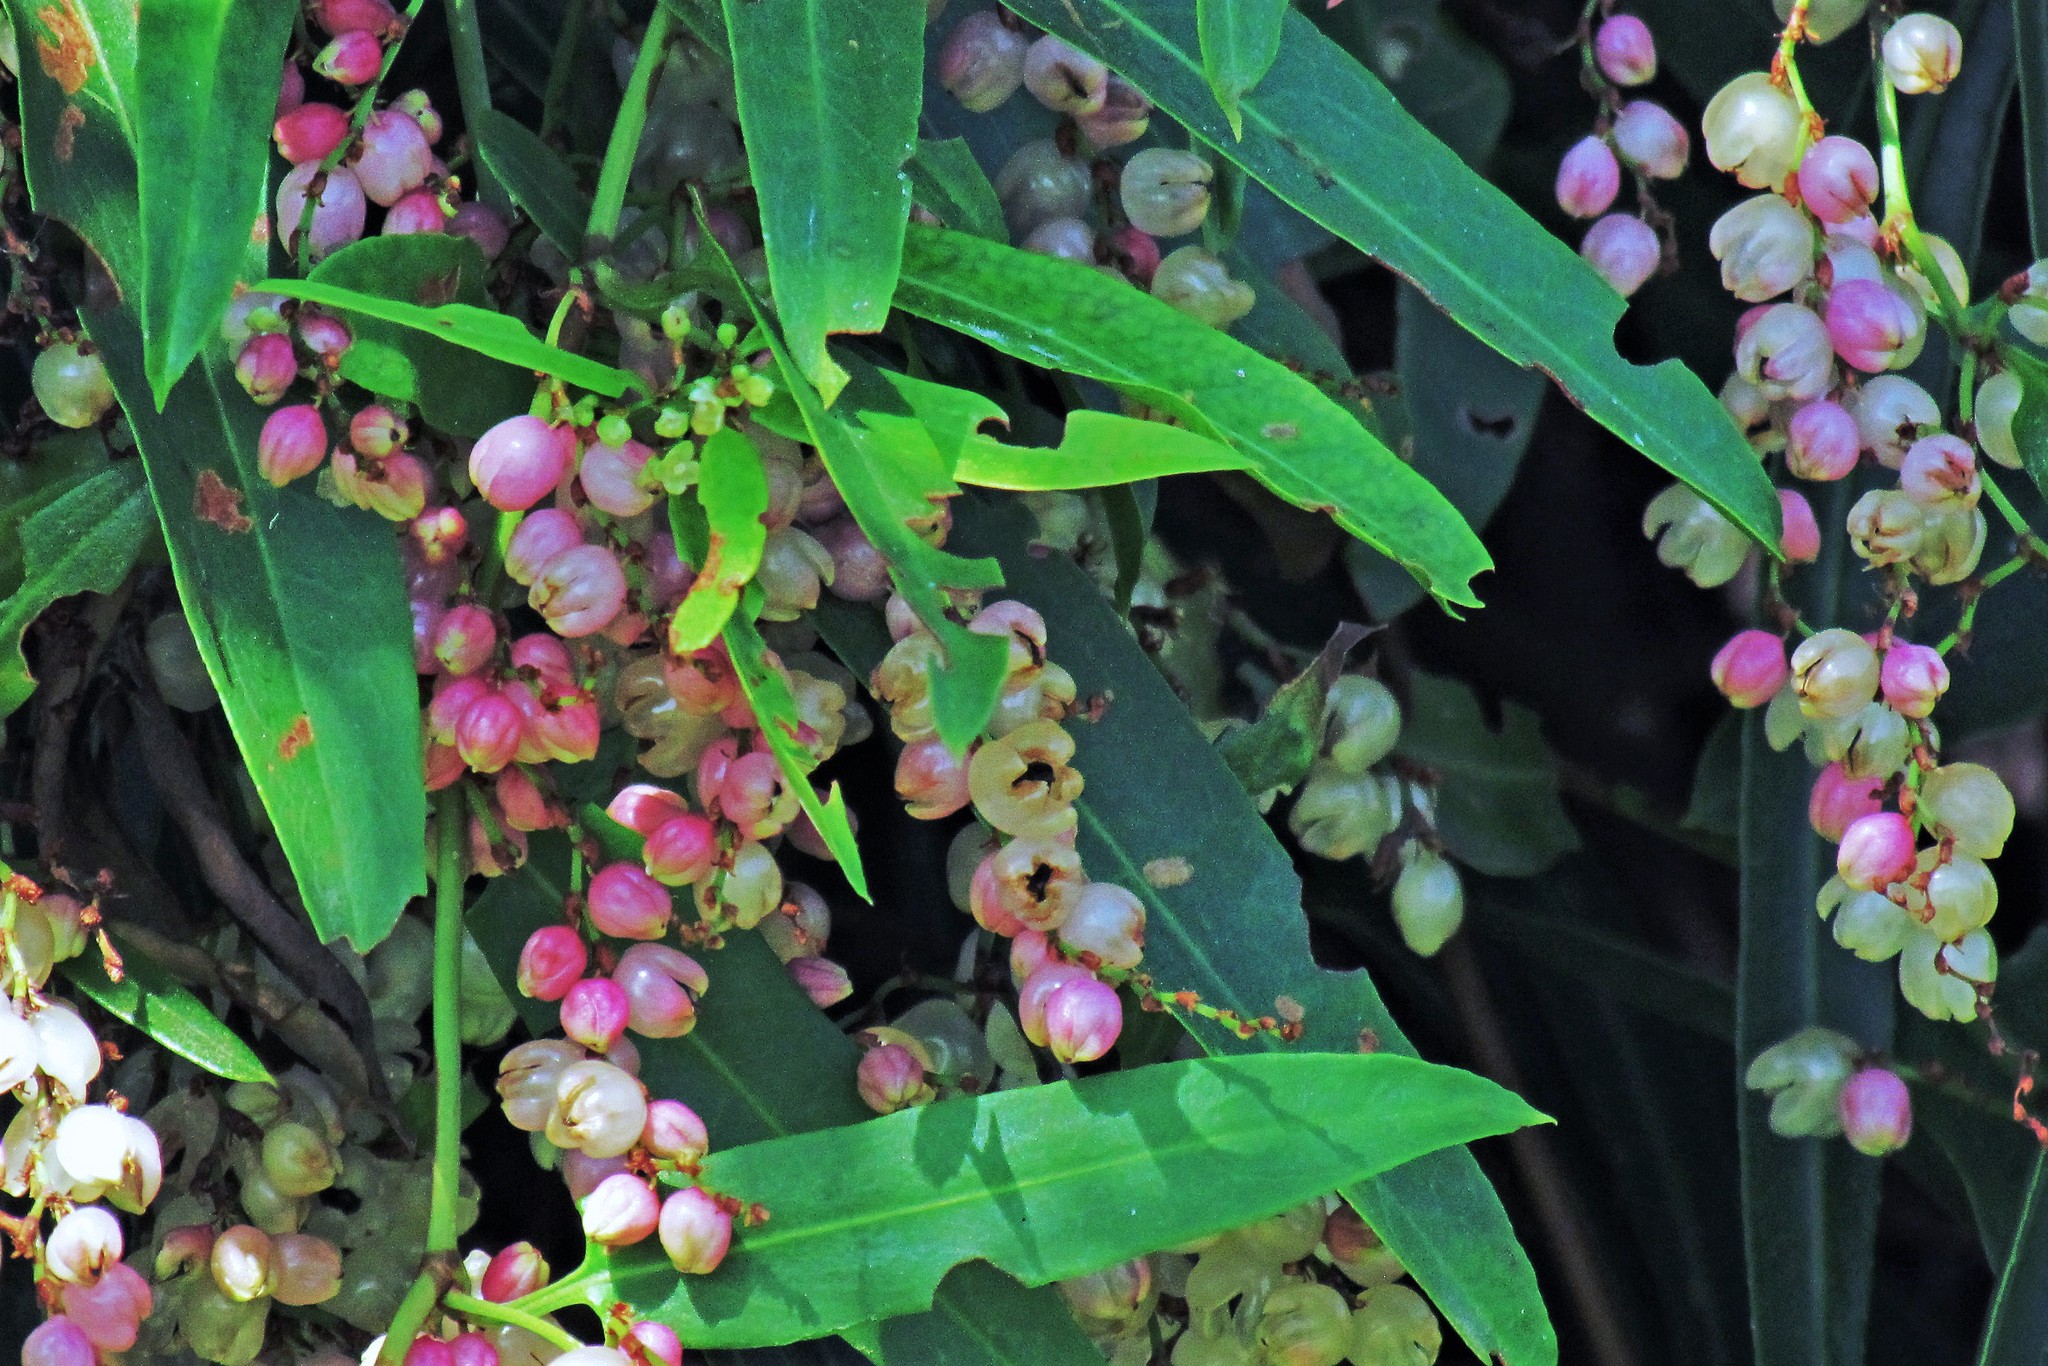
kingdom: Plantae
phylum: Tracheophyta
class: Magnoliopsida
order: Caryophyllales
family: Polygonaceae
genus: Muehlenbeckia
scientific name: Muehlenbeckia sagittifolia
